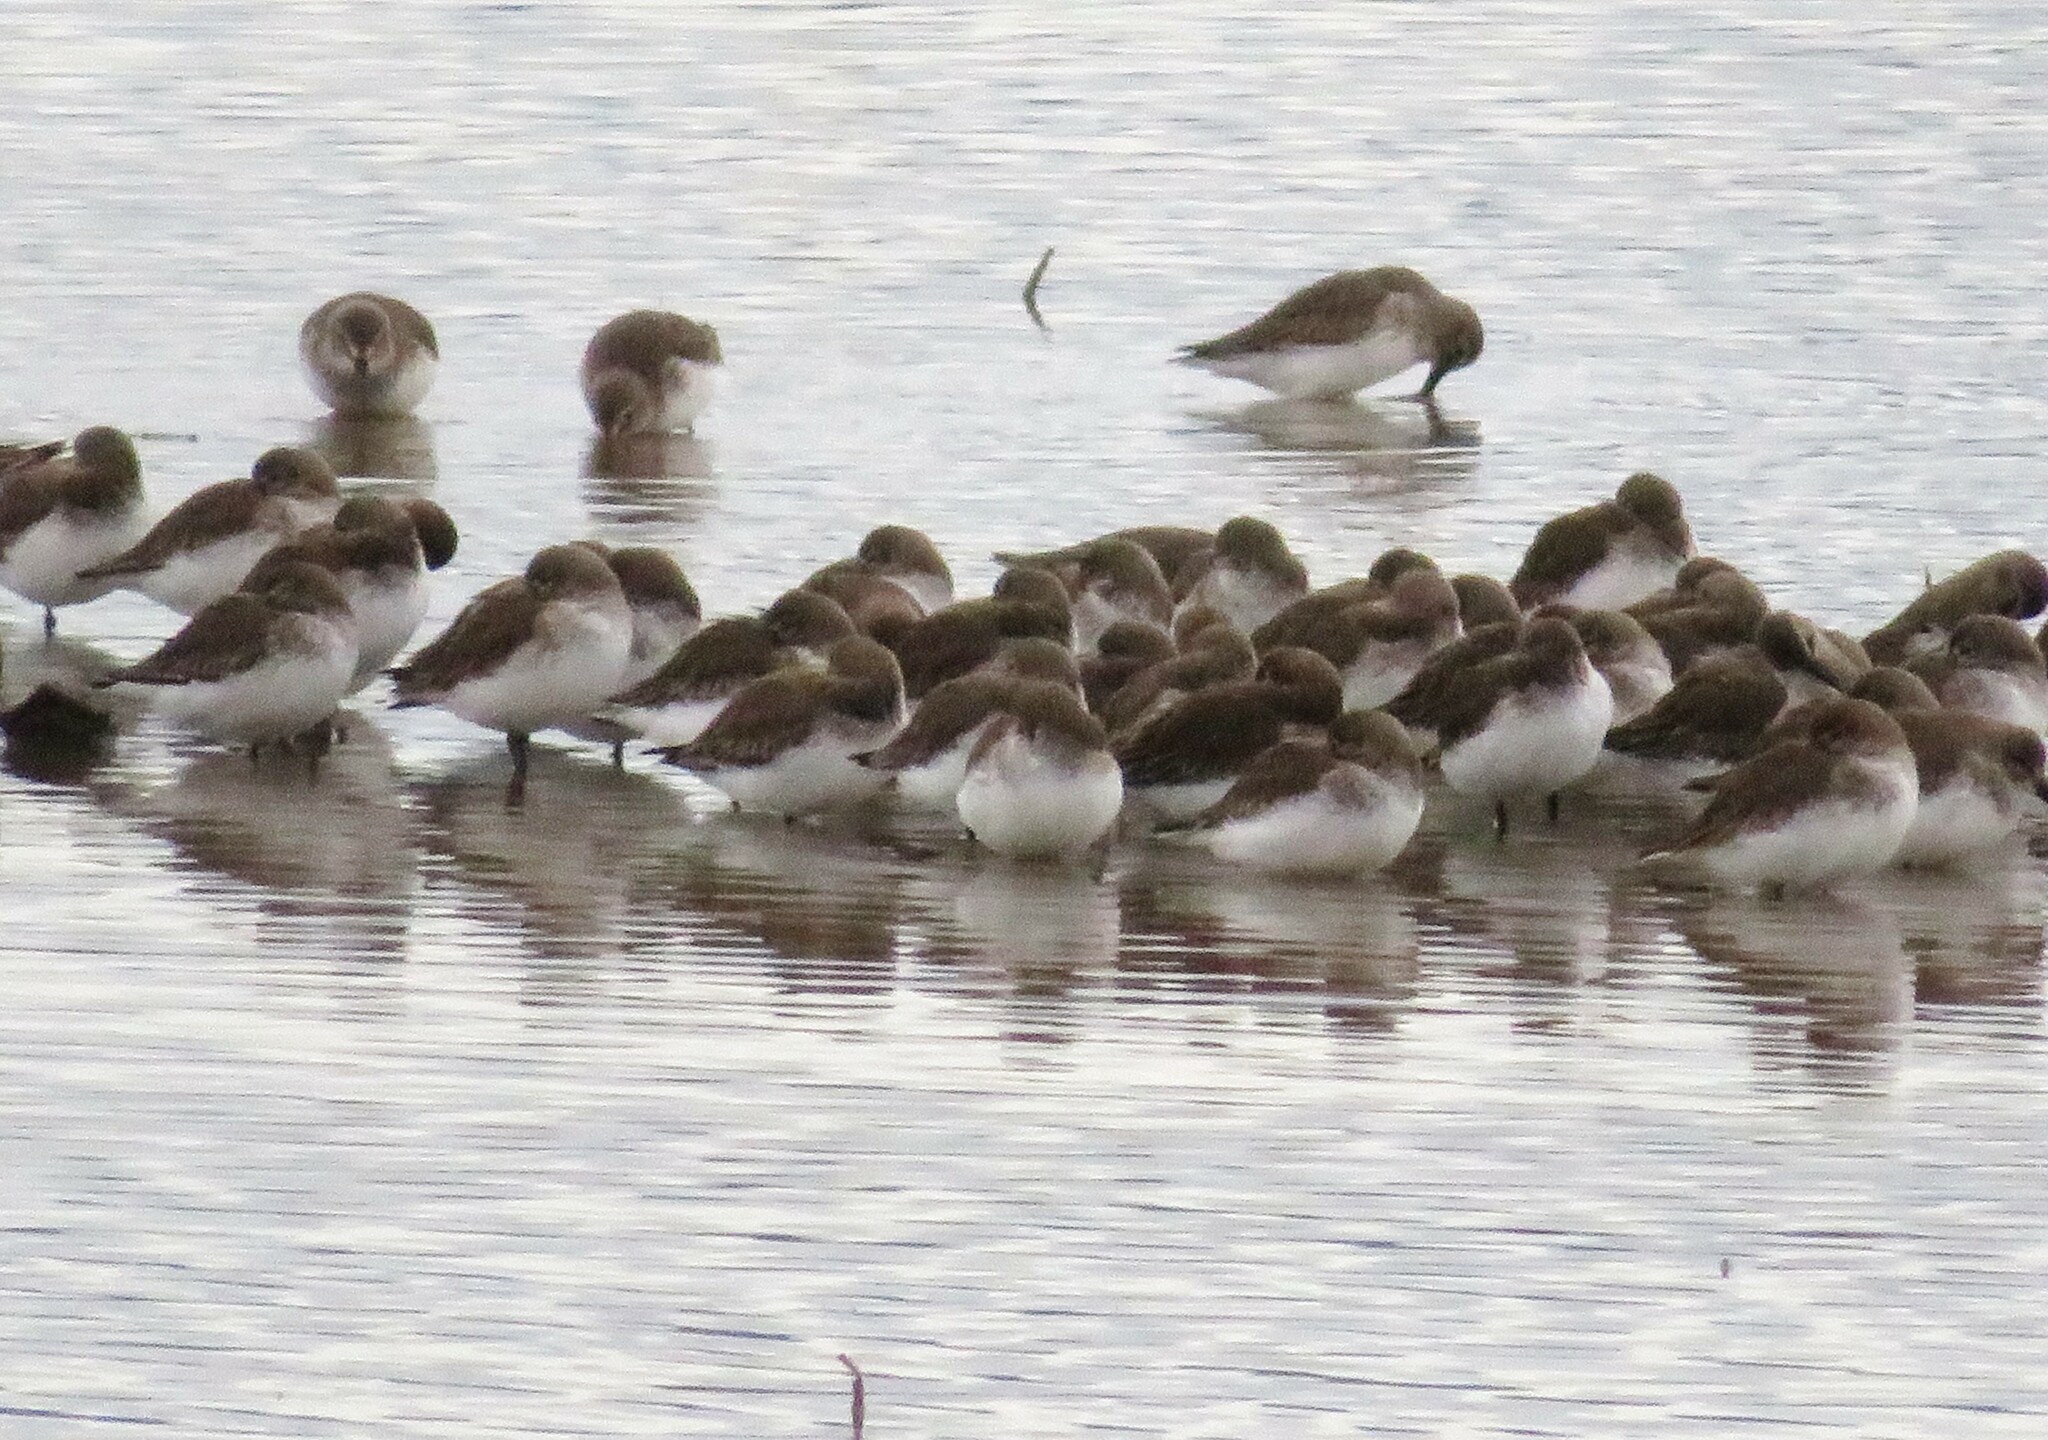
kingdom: Animalia
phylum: Chordata
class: Aves
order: Charadriiformes
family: Scolopacidae
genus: Calidris
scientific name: Calidris alpina
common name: Dunlin
